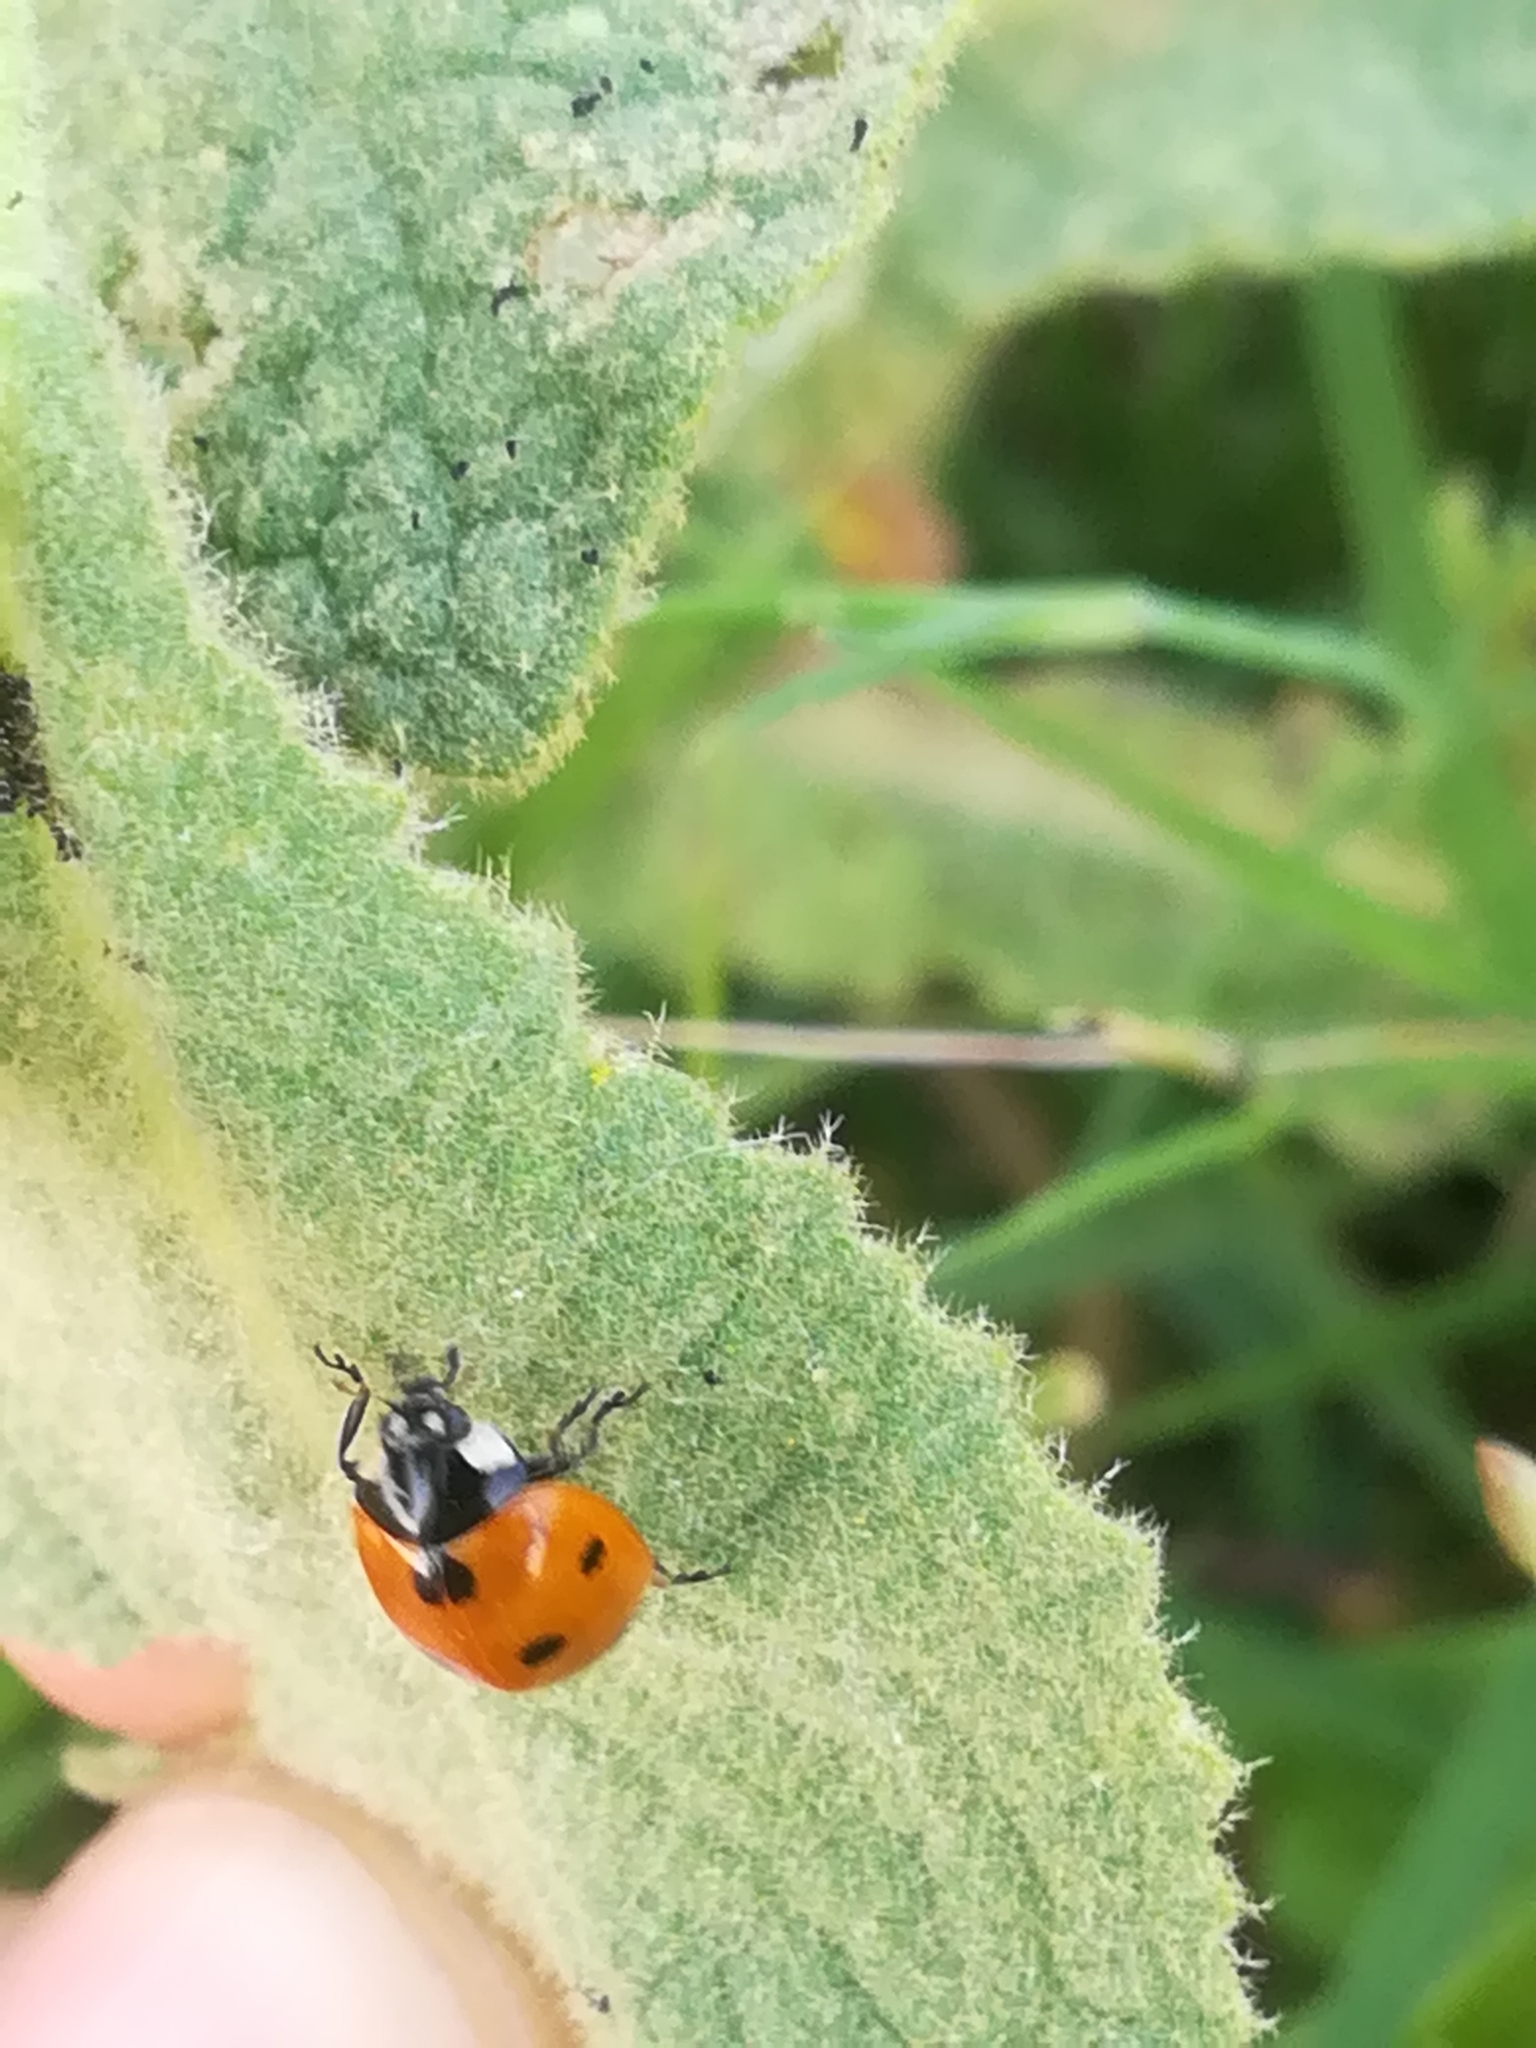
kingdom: Animalia
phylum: Arthropoda
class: Insecta
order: Coleoptera
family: Coccinellidae
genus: Coccinella
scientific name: Coccinella septempunctata
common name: Sevenspotted lady beetle
